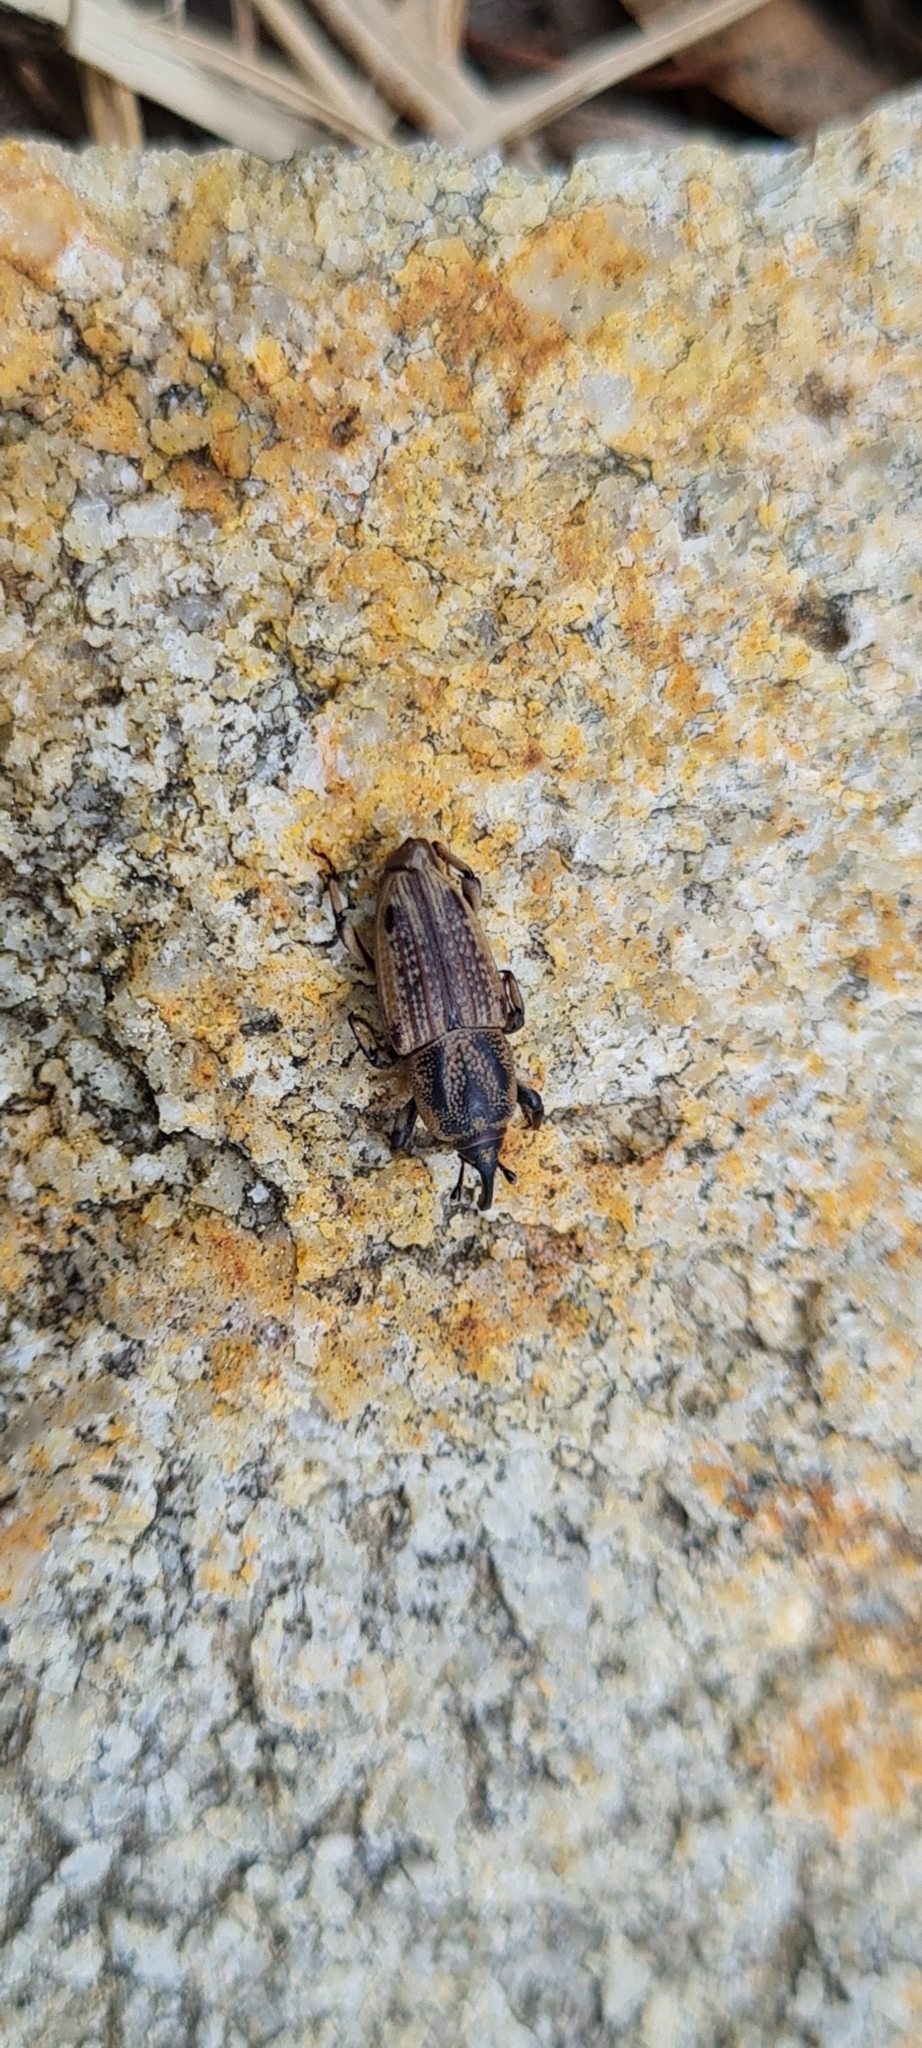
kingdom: Animalia
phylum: Arthropoda
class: Insecta
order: Coleoptera
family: Dryophthoridae
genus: Sphenophorus
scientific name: Sphenophorus venatus
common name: Hunting billbug
